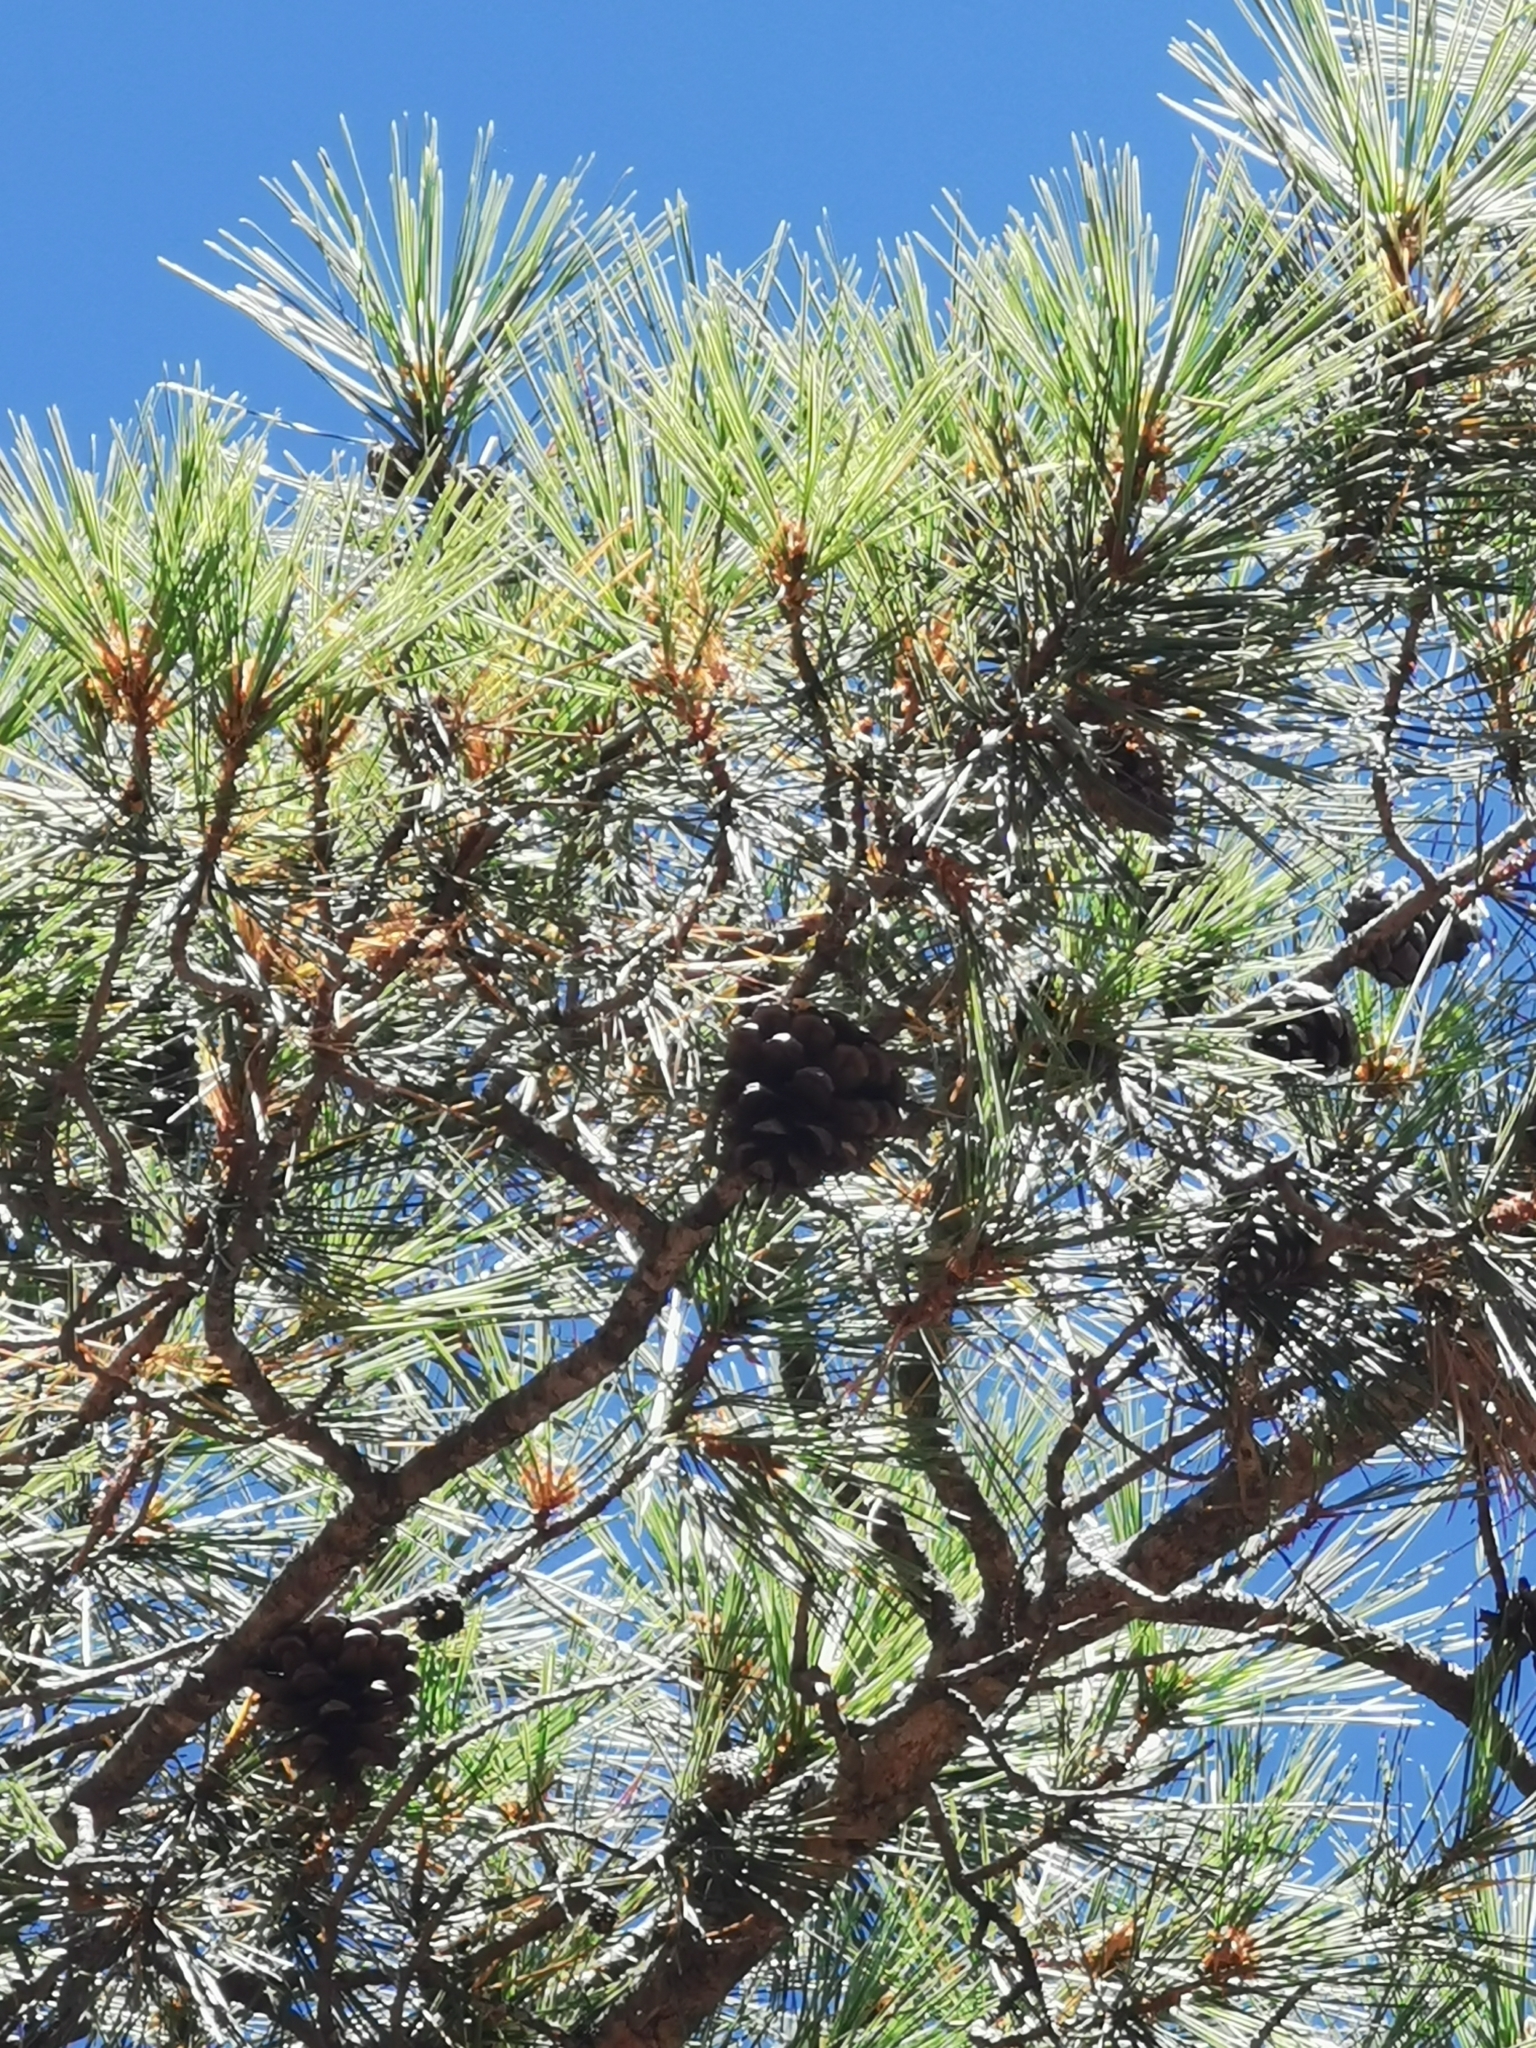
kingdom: Plantae
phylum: Tracheophyta
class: Pinopsida
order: Pinales
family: Pinaceae
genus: Pinus
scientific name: Pinus leiophylla
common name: Chihuahua pine
